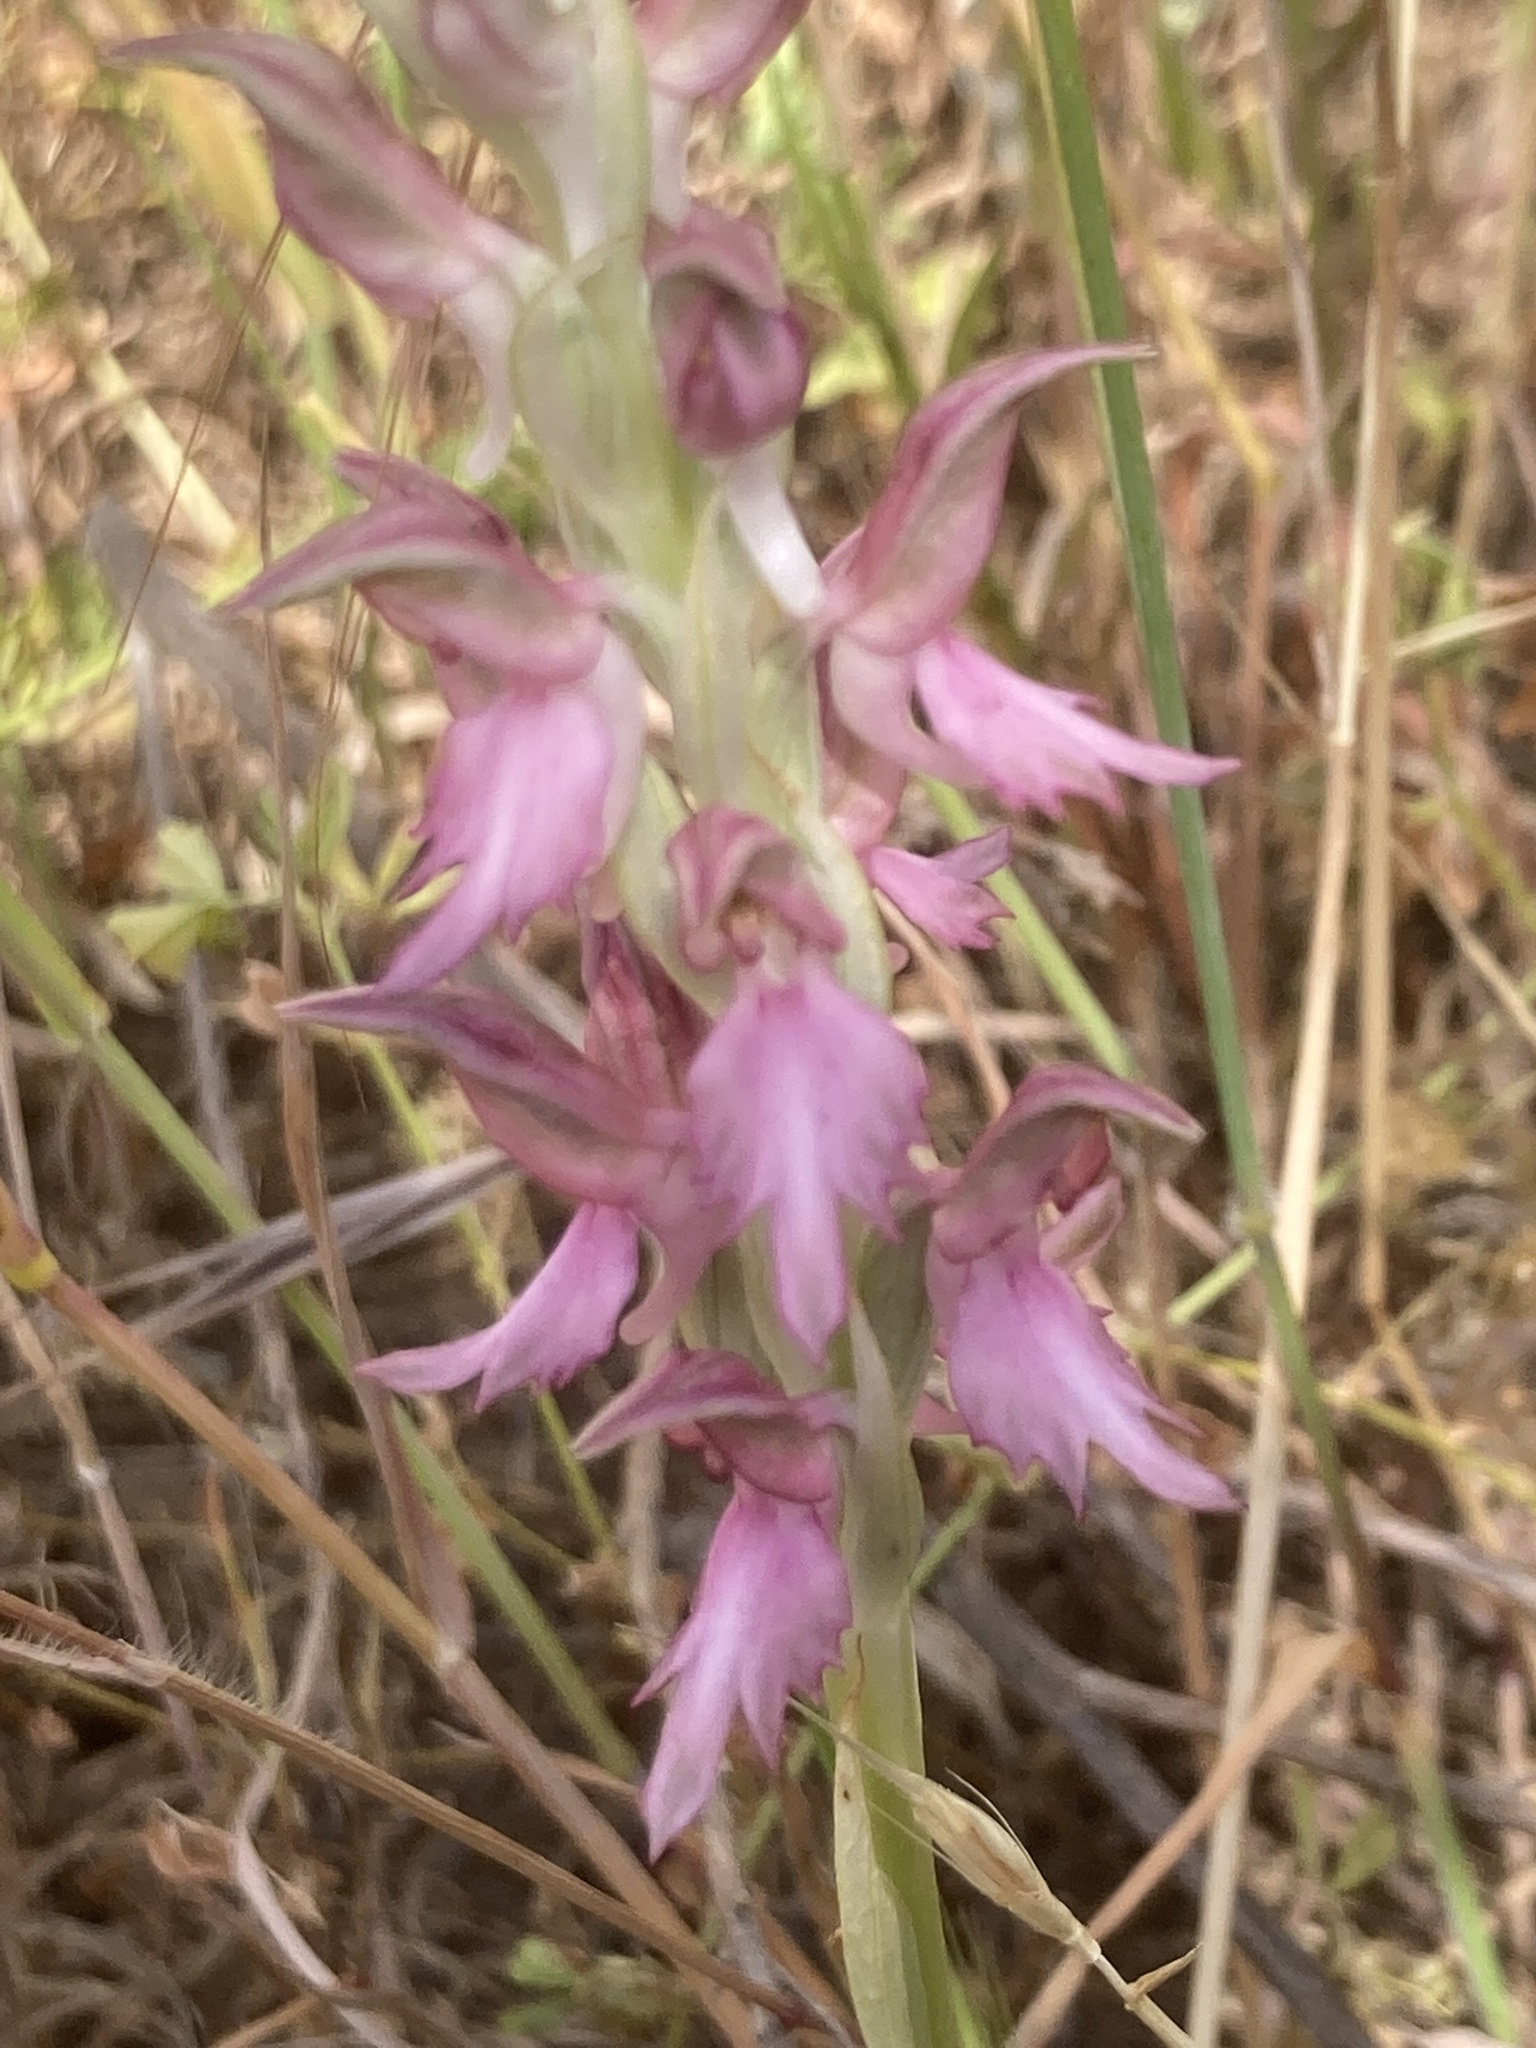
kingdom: Plantae
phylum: Tracheophyta
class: Liliopsida
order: Asparagales
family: Orchidaceae
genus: Anacamptis
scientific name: Anacamptis sancta
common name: Holy orchid
